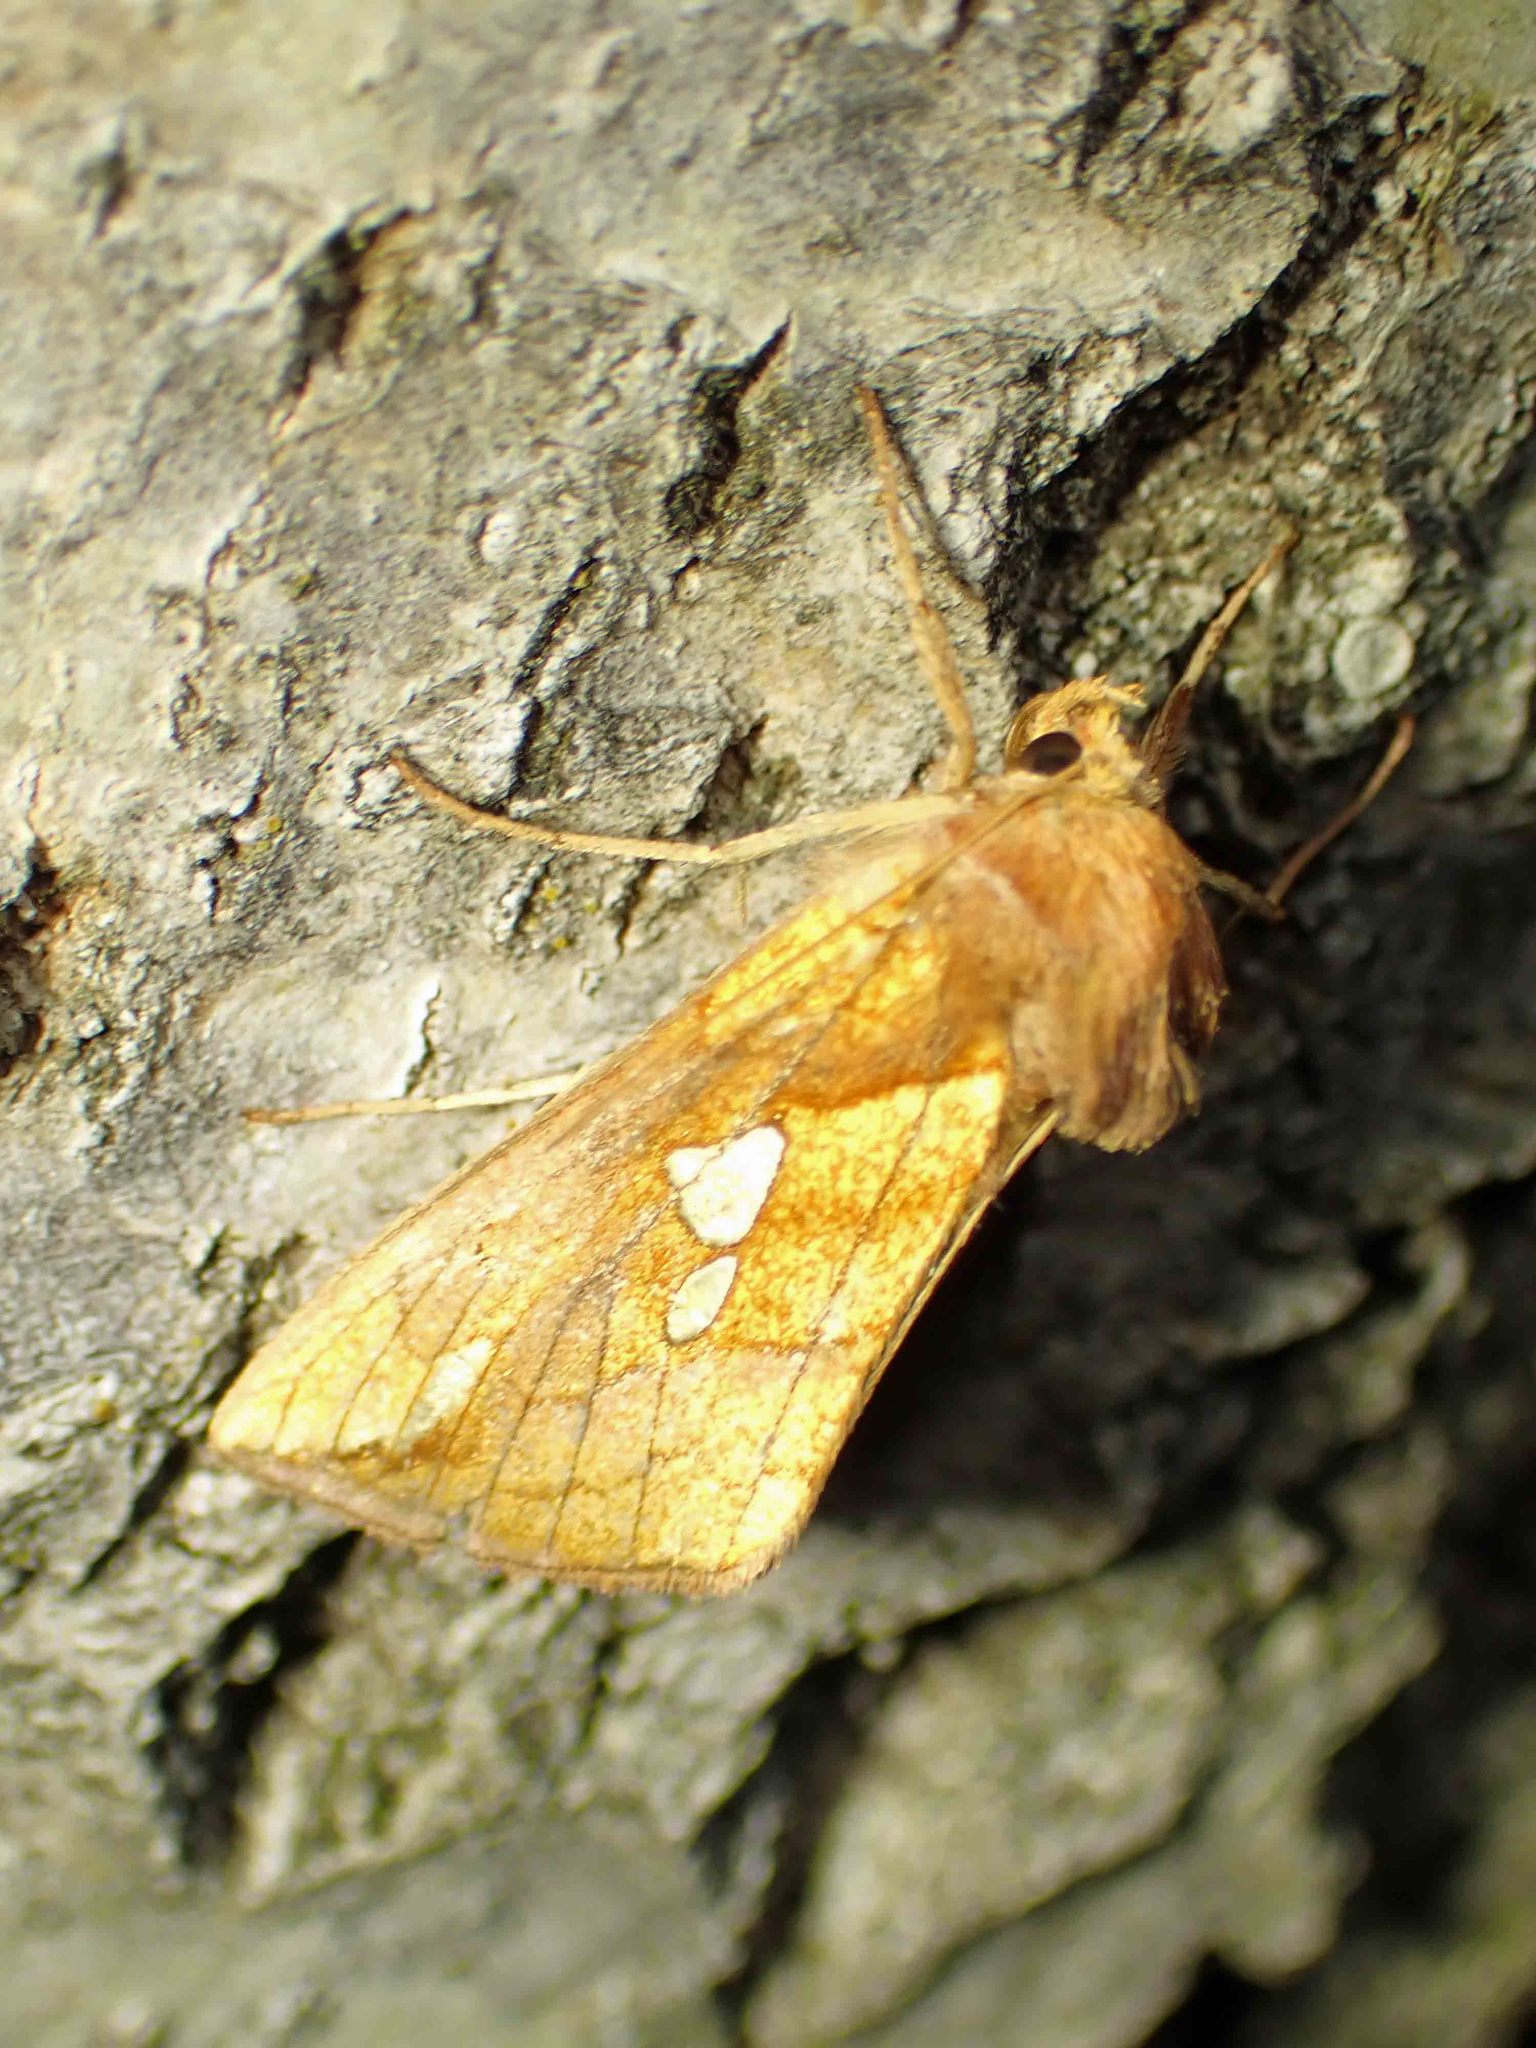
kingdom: Animalia
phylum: Arthropoda
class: Insecta
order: Lepidoptera
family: Noctuidae
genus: Plusia
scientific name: Plusia putnami
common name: Lempke's gold spot
